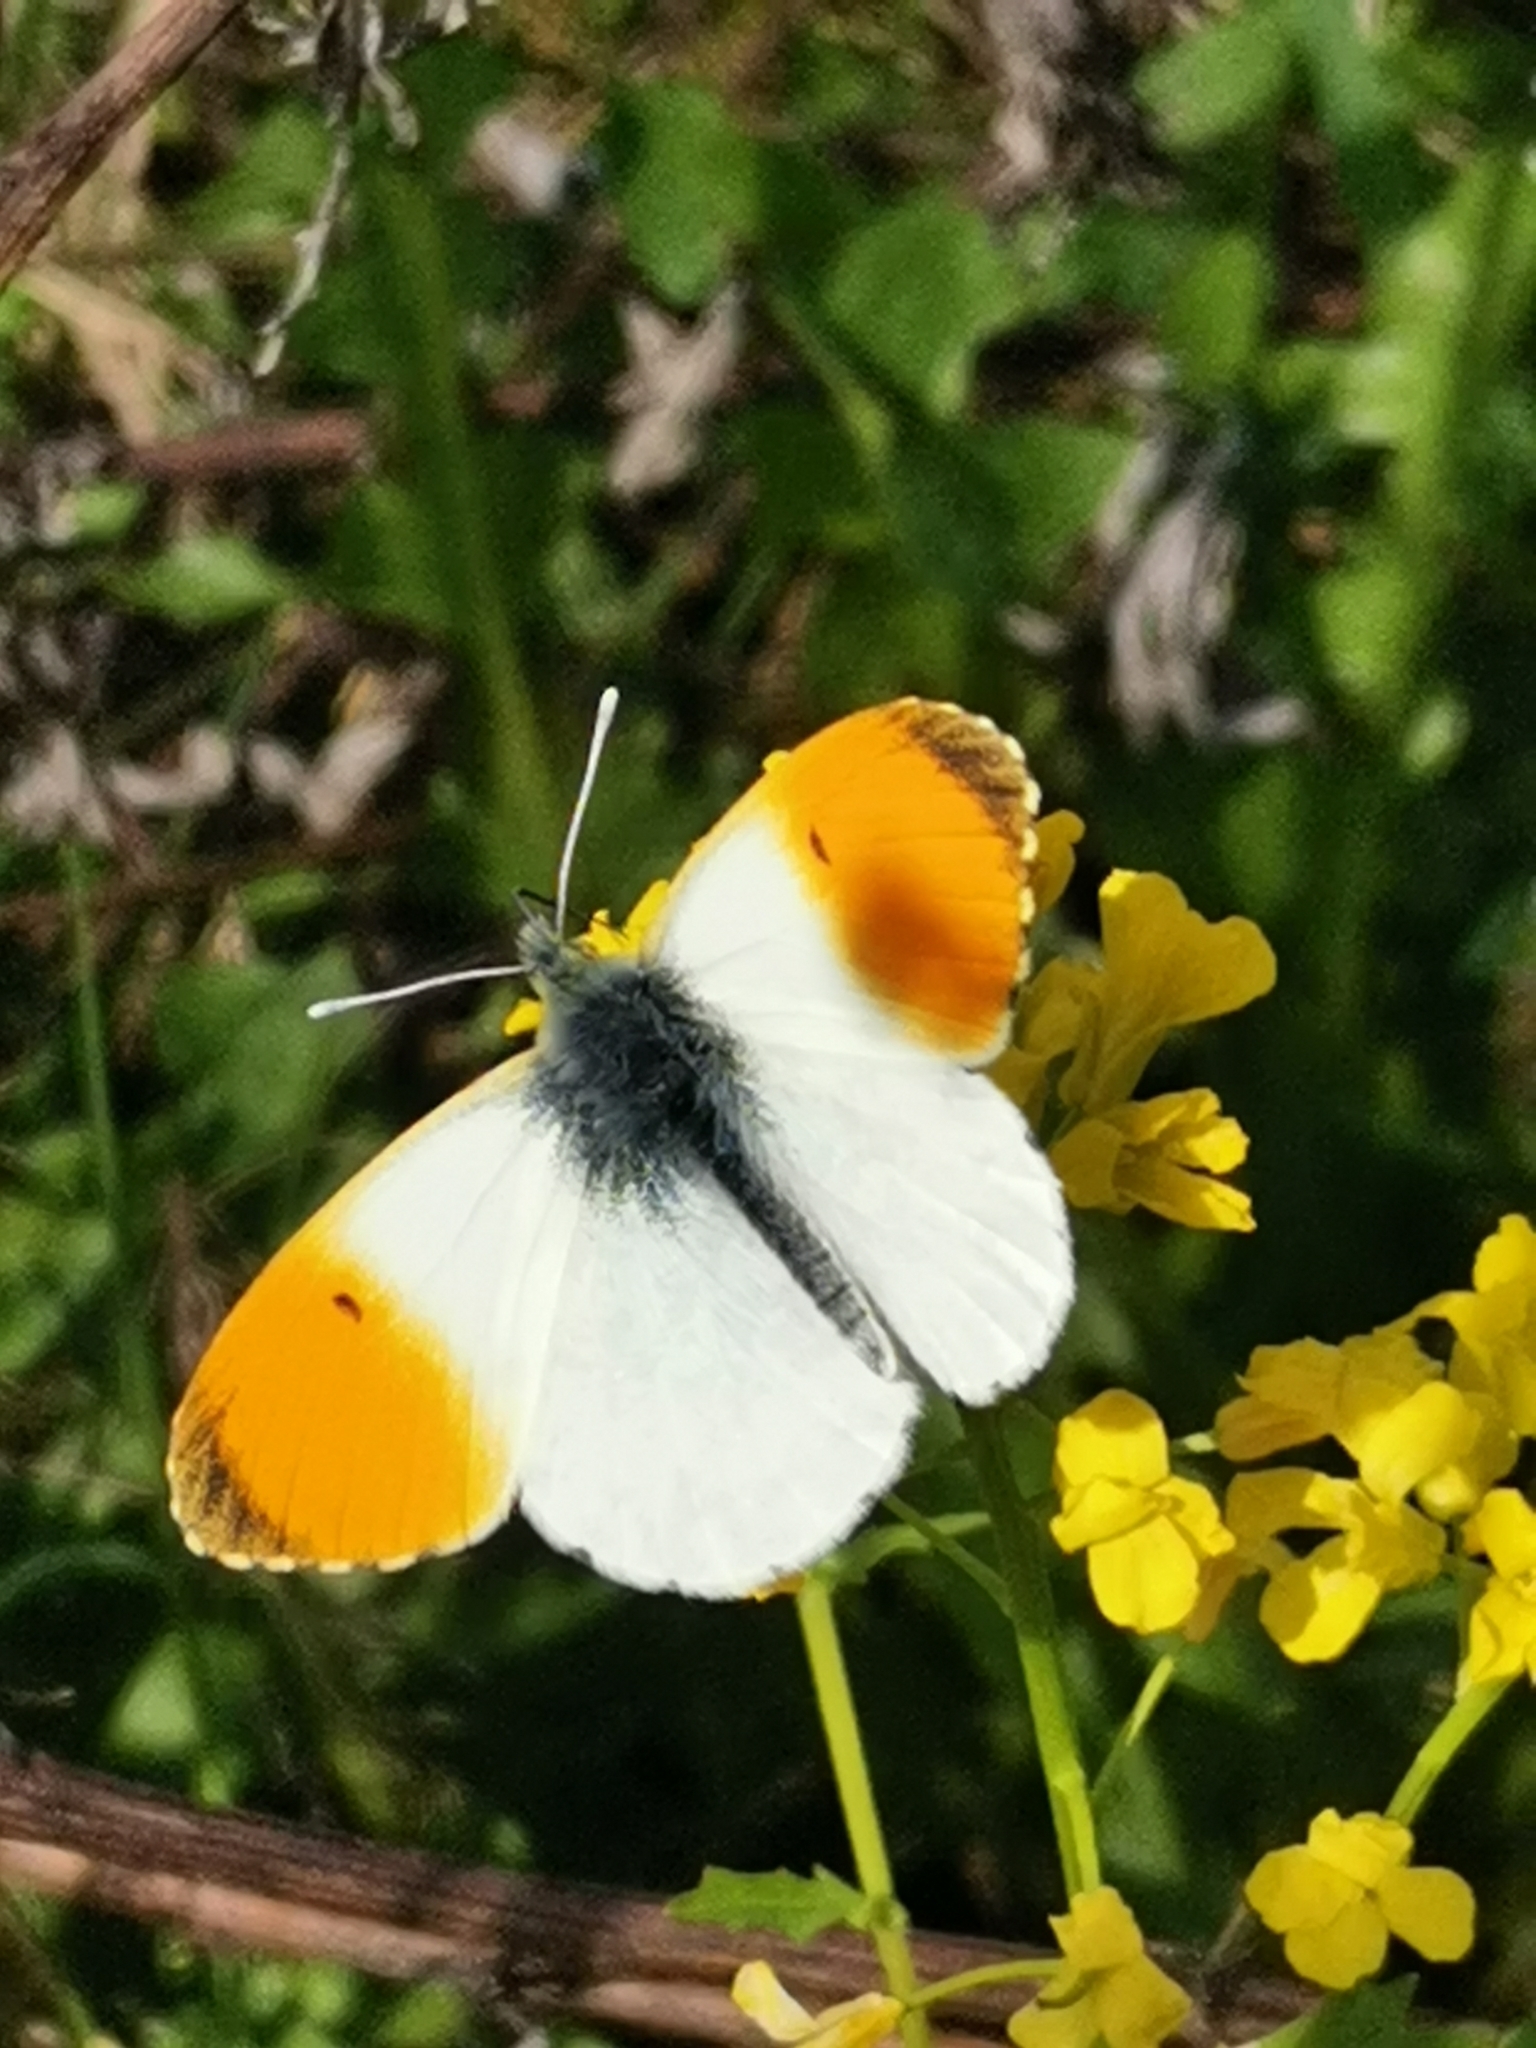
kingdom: Animalia
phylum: Arthropoda
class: Insecta
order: Lepidoptera
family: Pieridae
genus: Anthocharis
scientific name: Anthocharis cardamines
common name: Orange-tip
